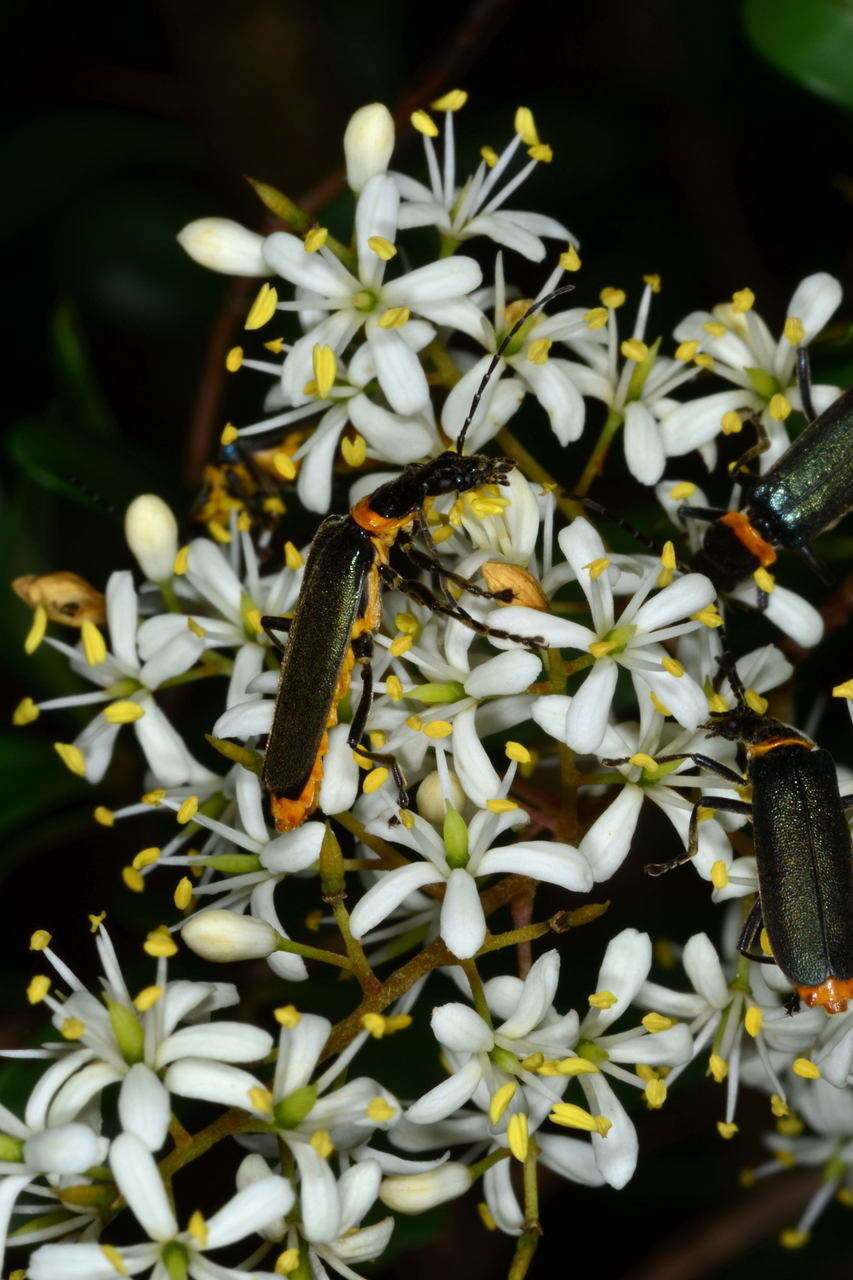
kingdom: Animalia
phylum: Arthropoda
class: Insecta
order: Coleoptera
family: Cantharidae
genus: Chauliognathus
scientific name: Chauliognathus
